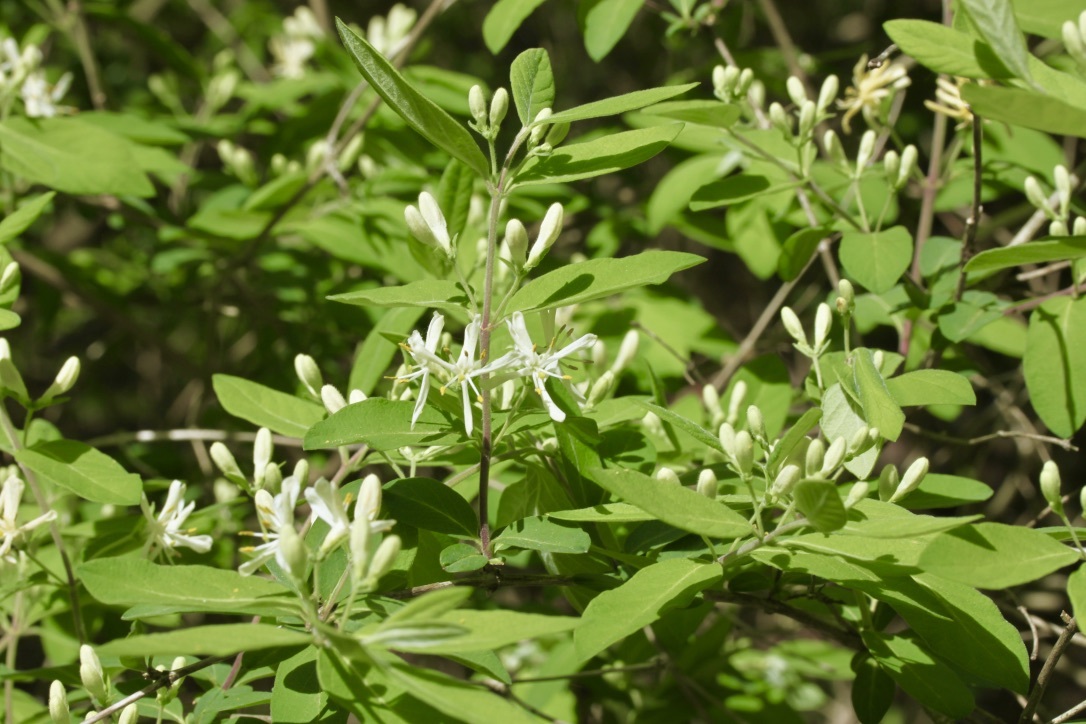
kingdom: Plantae
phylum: Tracheophyta
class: Magnoliopsida
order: Dipsacales
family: Caprifoliaceae
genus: Lonicera
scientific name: Lonicera japonica
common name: Japanese honeysuckle
